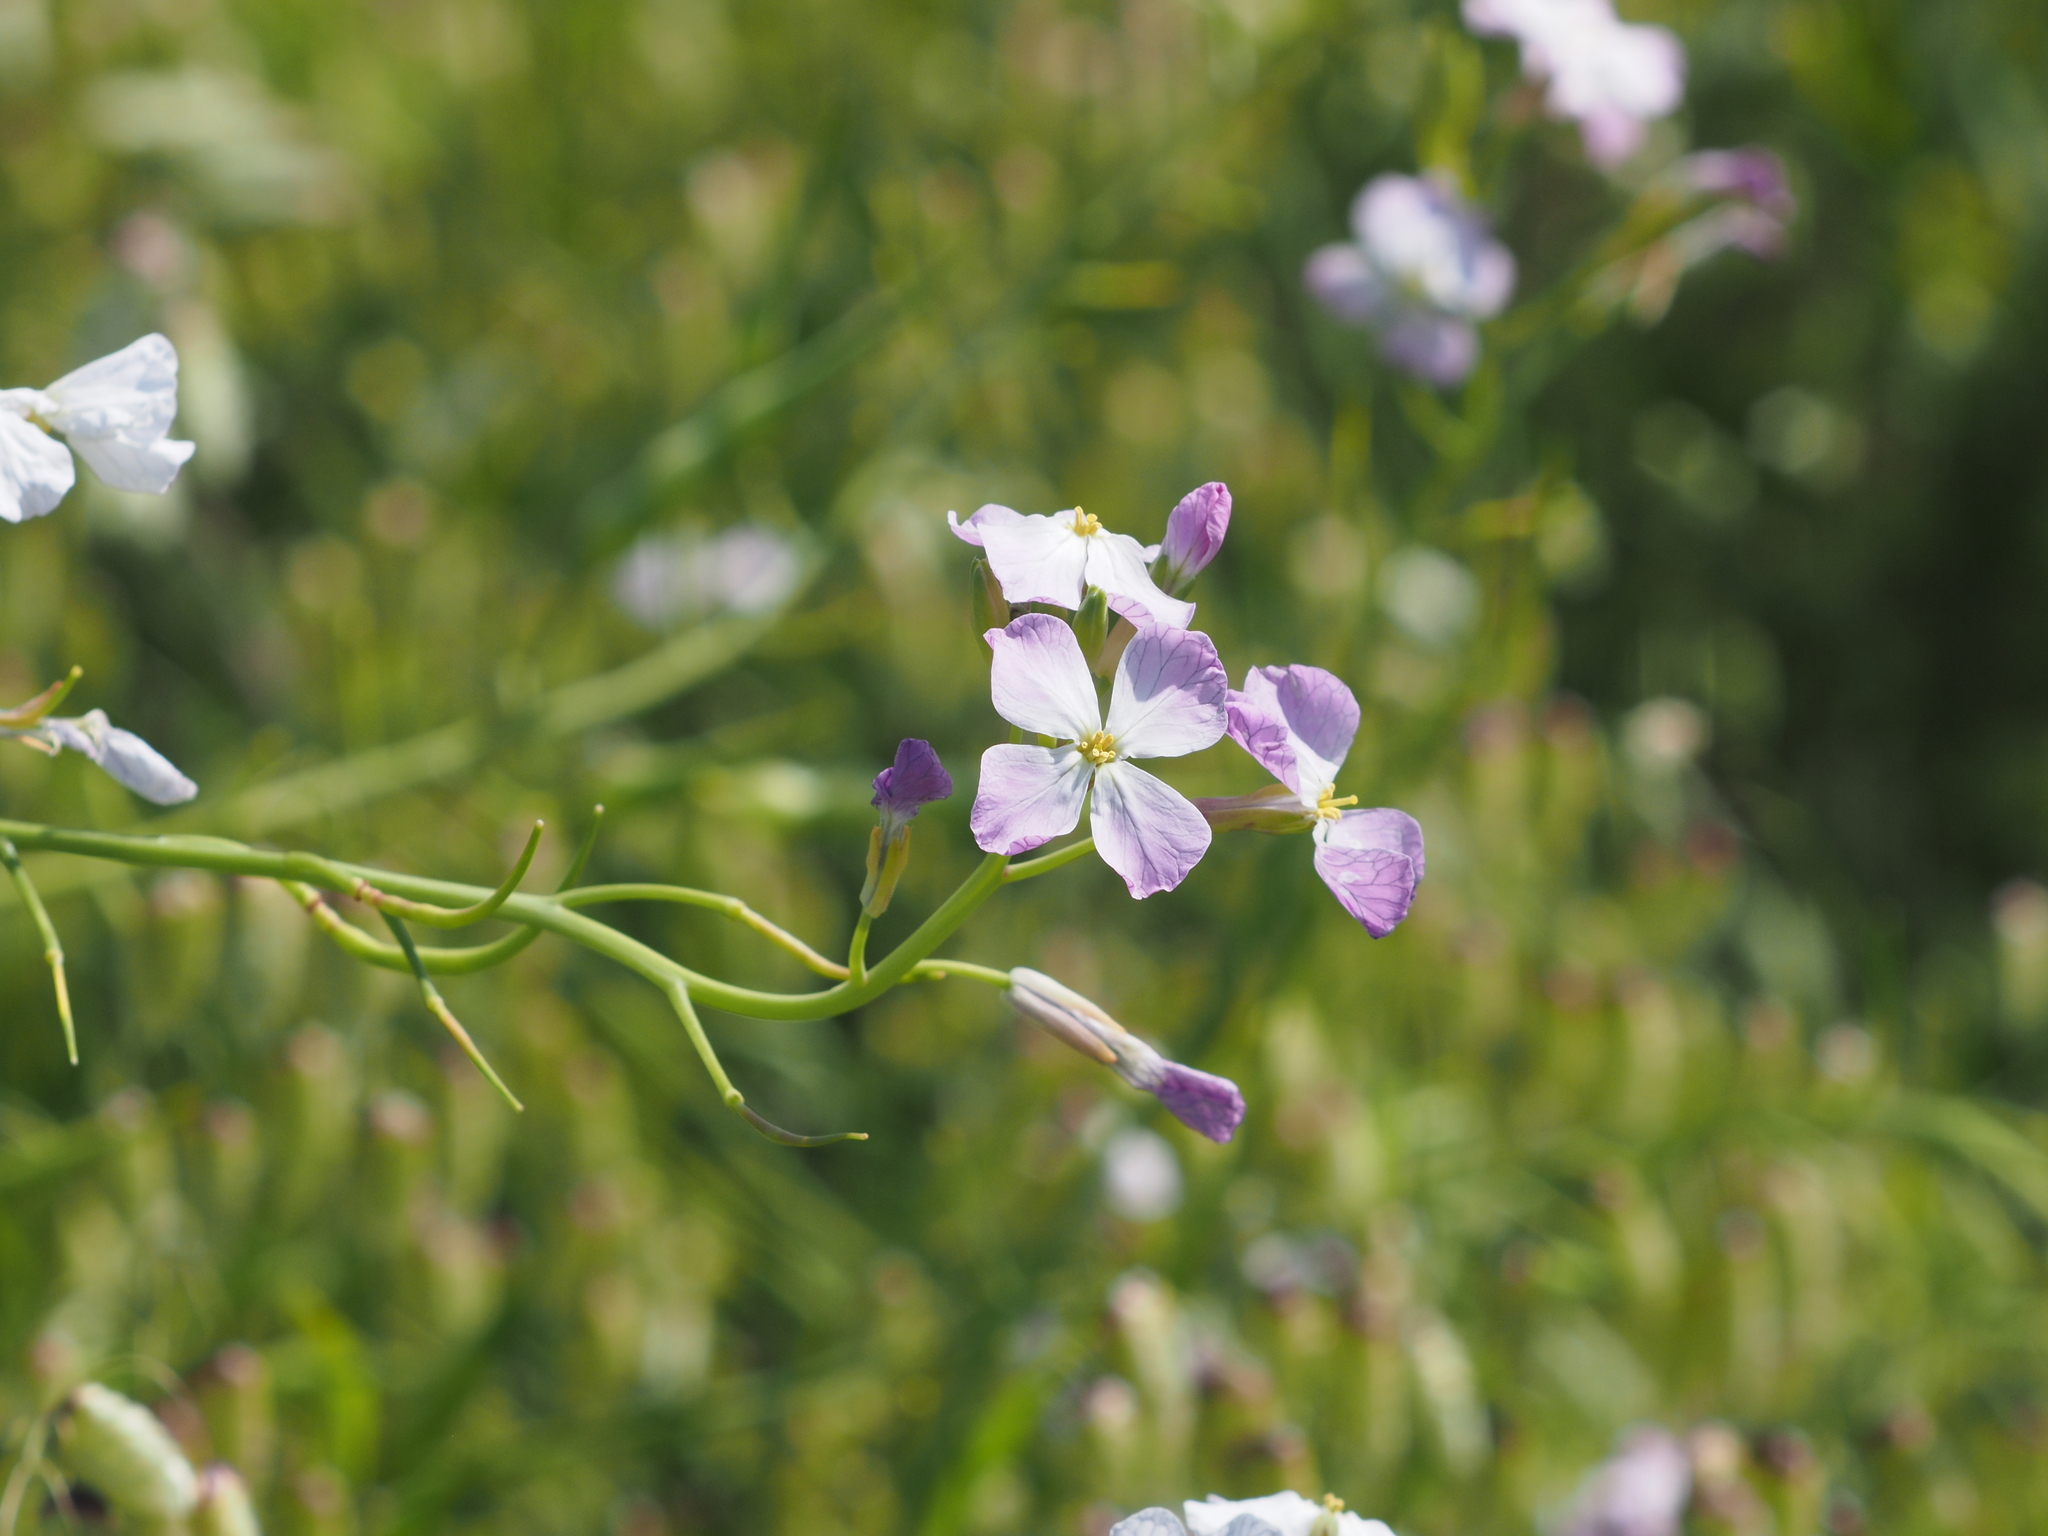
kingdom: Plantae
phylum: Tracheophyta
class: Magnoliopsida
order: Brassicales
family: Brassicaceae
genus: Raphanus
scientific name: Raphanus sativus
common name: Cultivated radish
